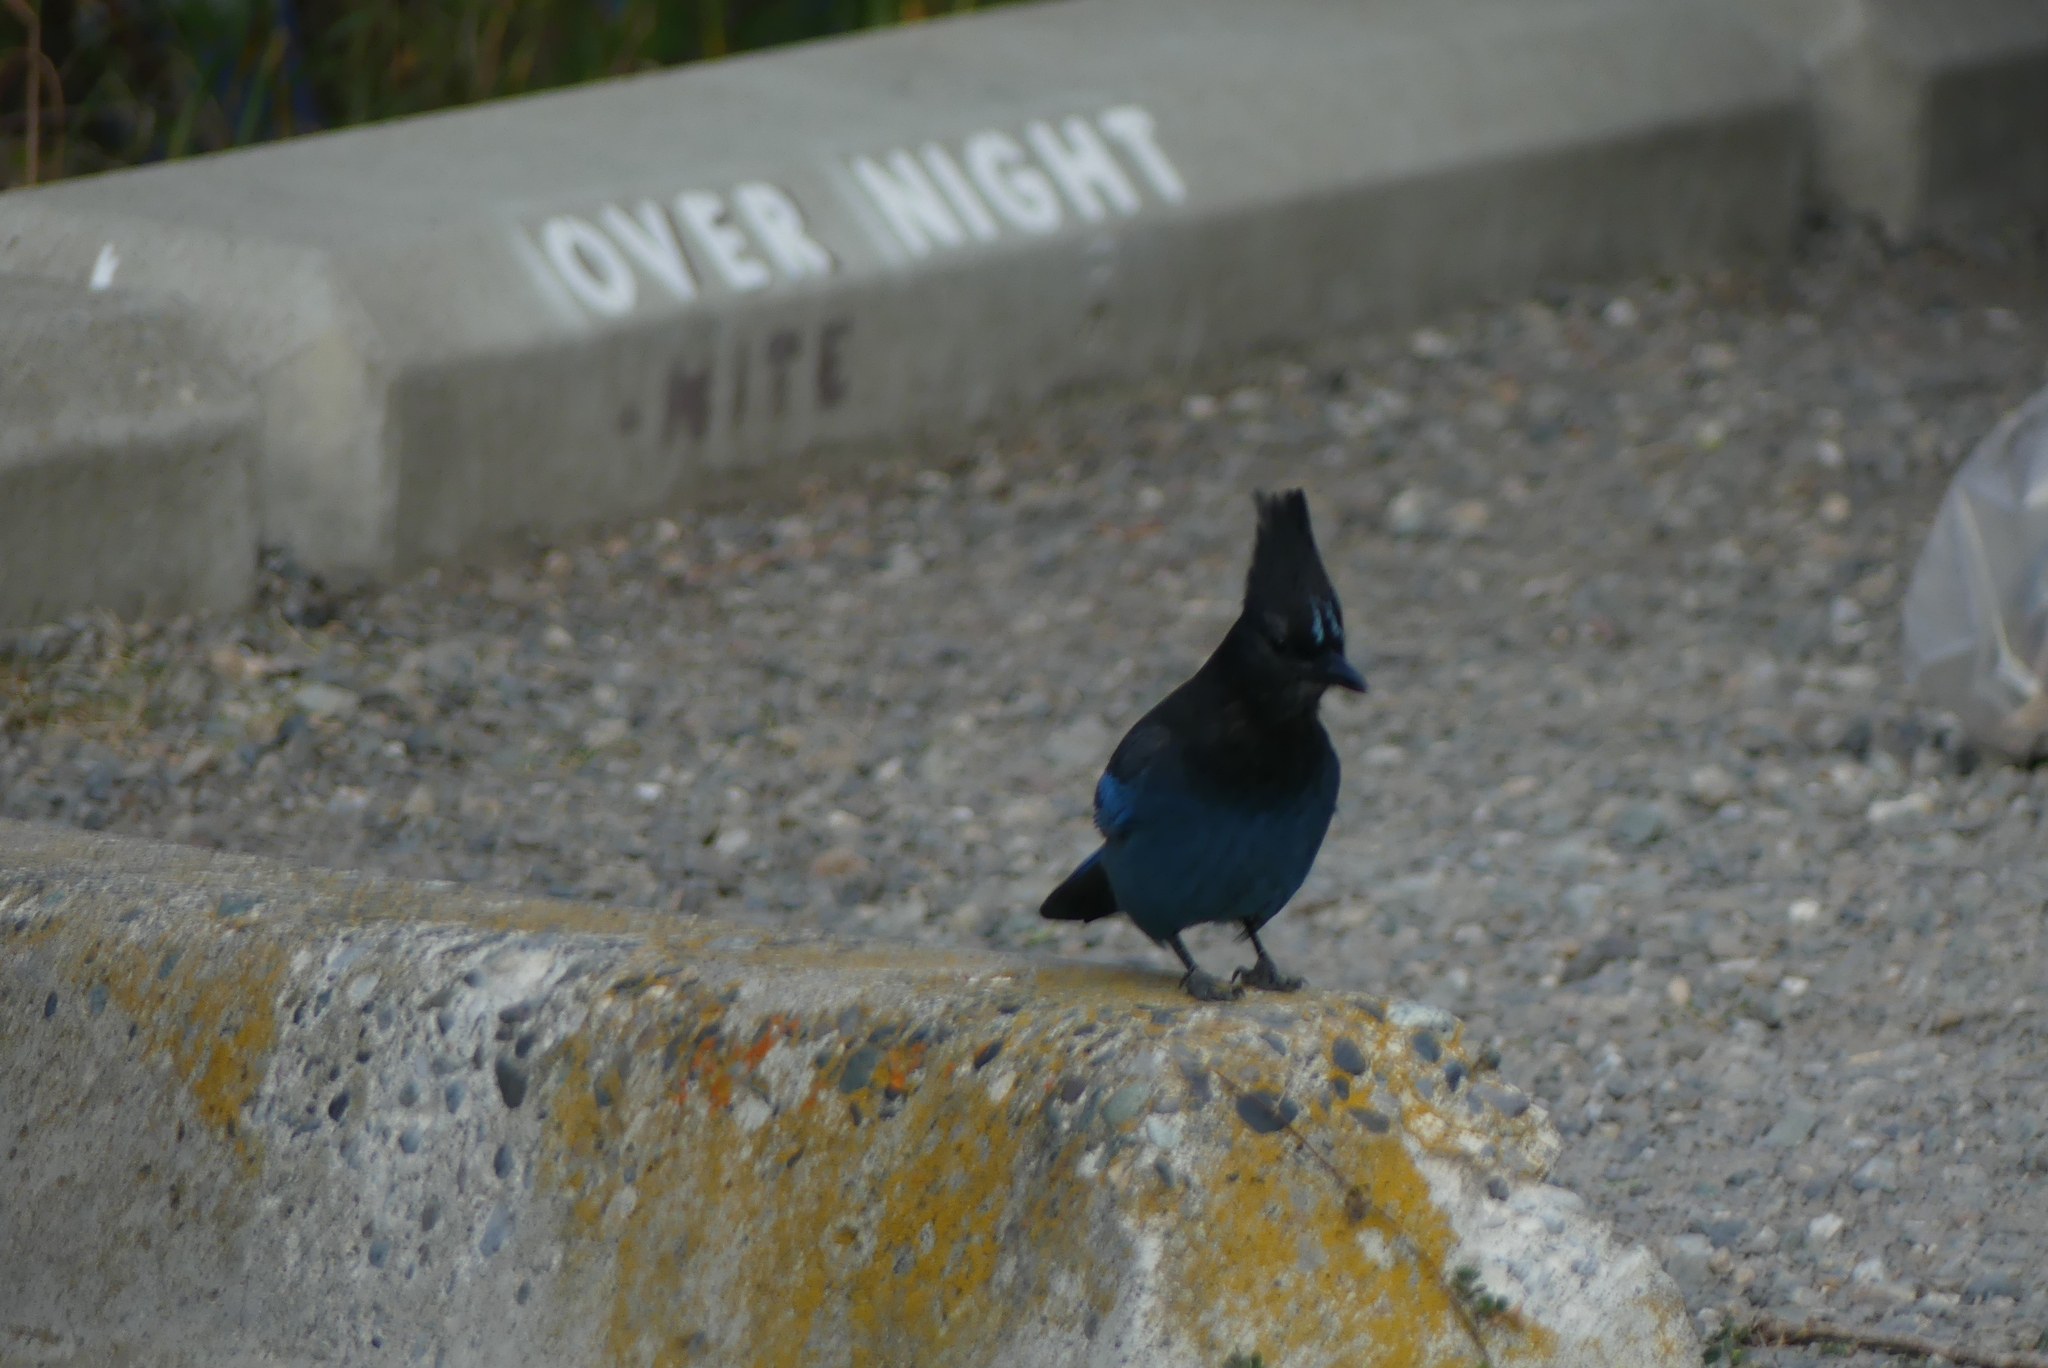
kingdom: Animalia
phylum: Chordata
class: Aves
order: Passeriformes
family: Corvidae
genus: Cyanocitta
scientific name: Cyanocitta stelleri
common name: Steller's jay
